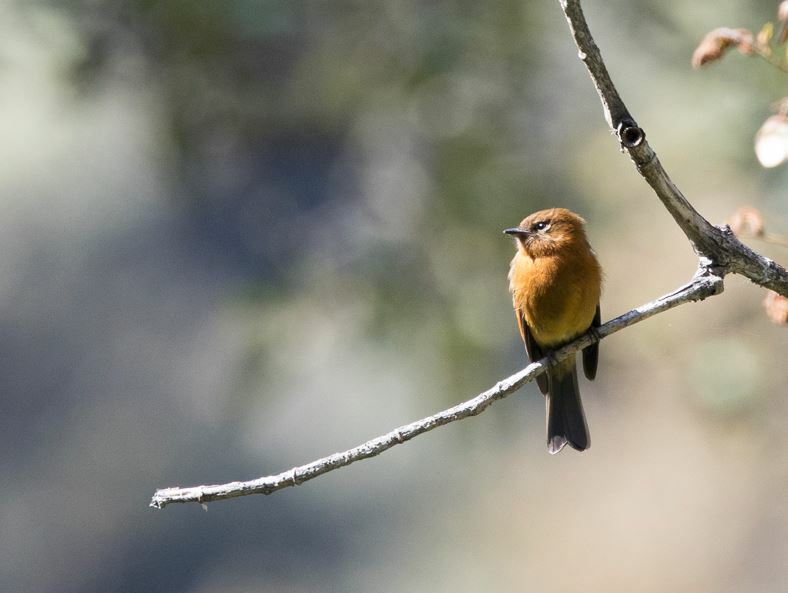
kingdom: Animalia
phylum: Chordata
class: Aves
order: Passeriformes
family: Tyrannidae
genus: Pyrrhomyias
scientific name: Pyrrhomyias cinnamomeus
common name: Cinnamon flycatcher
